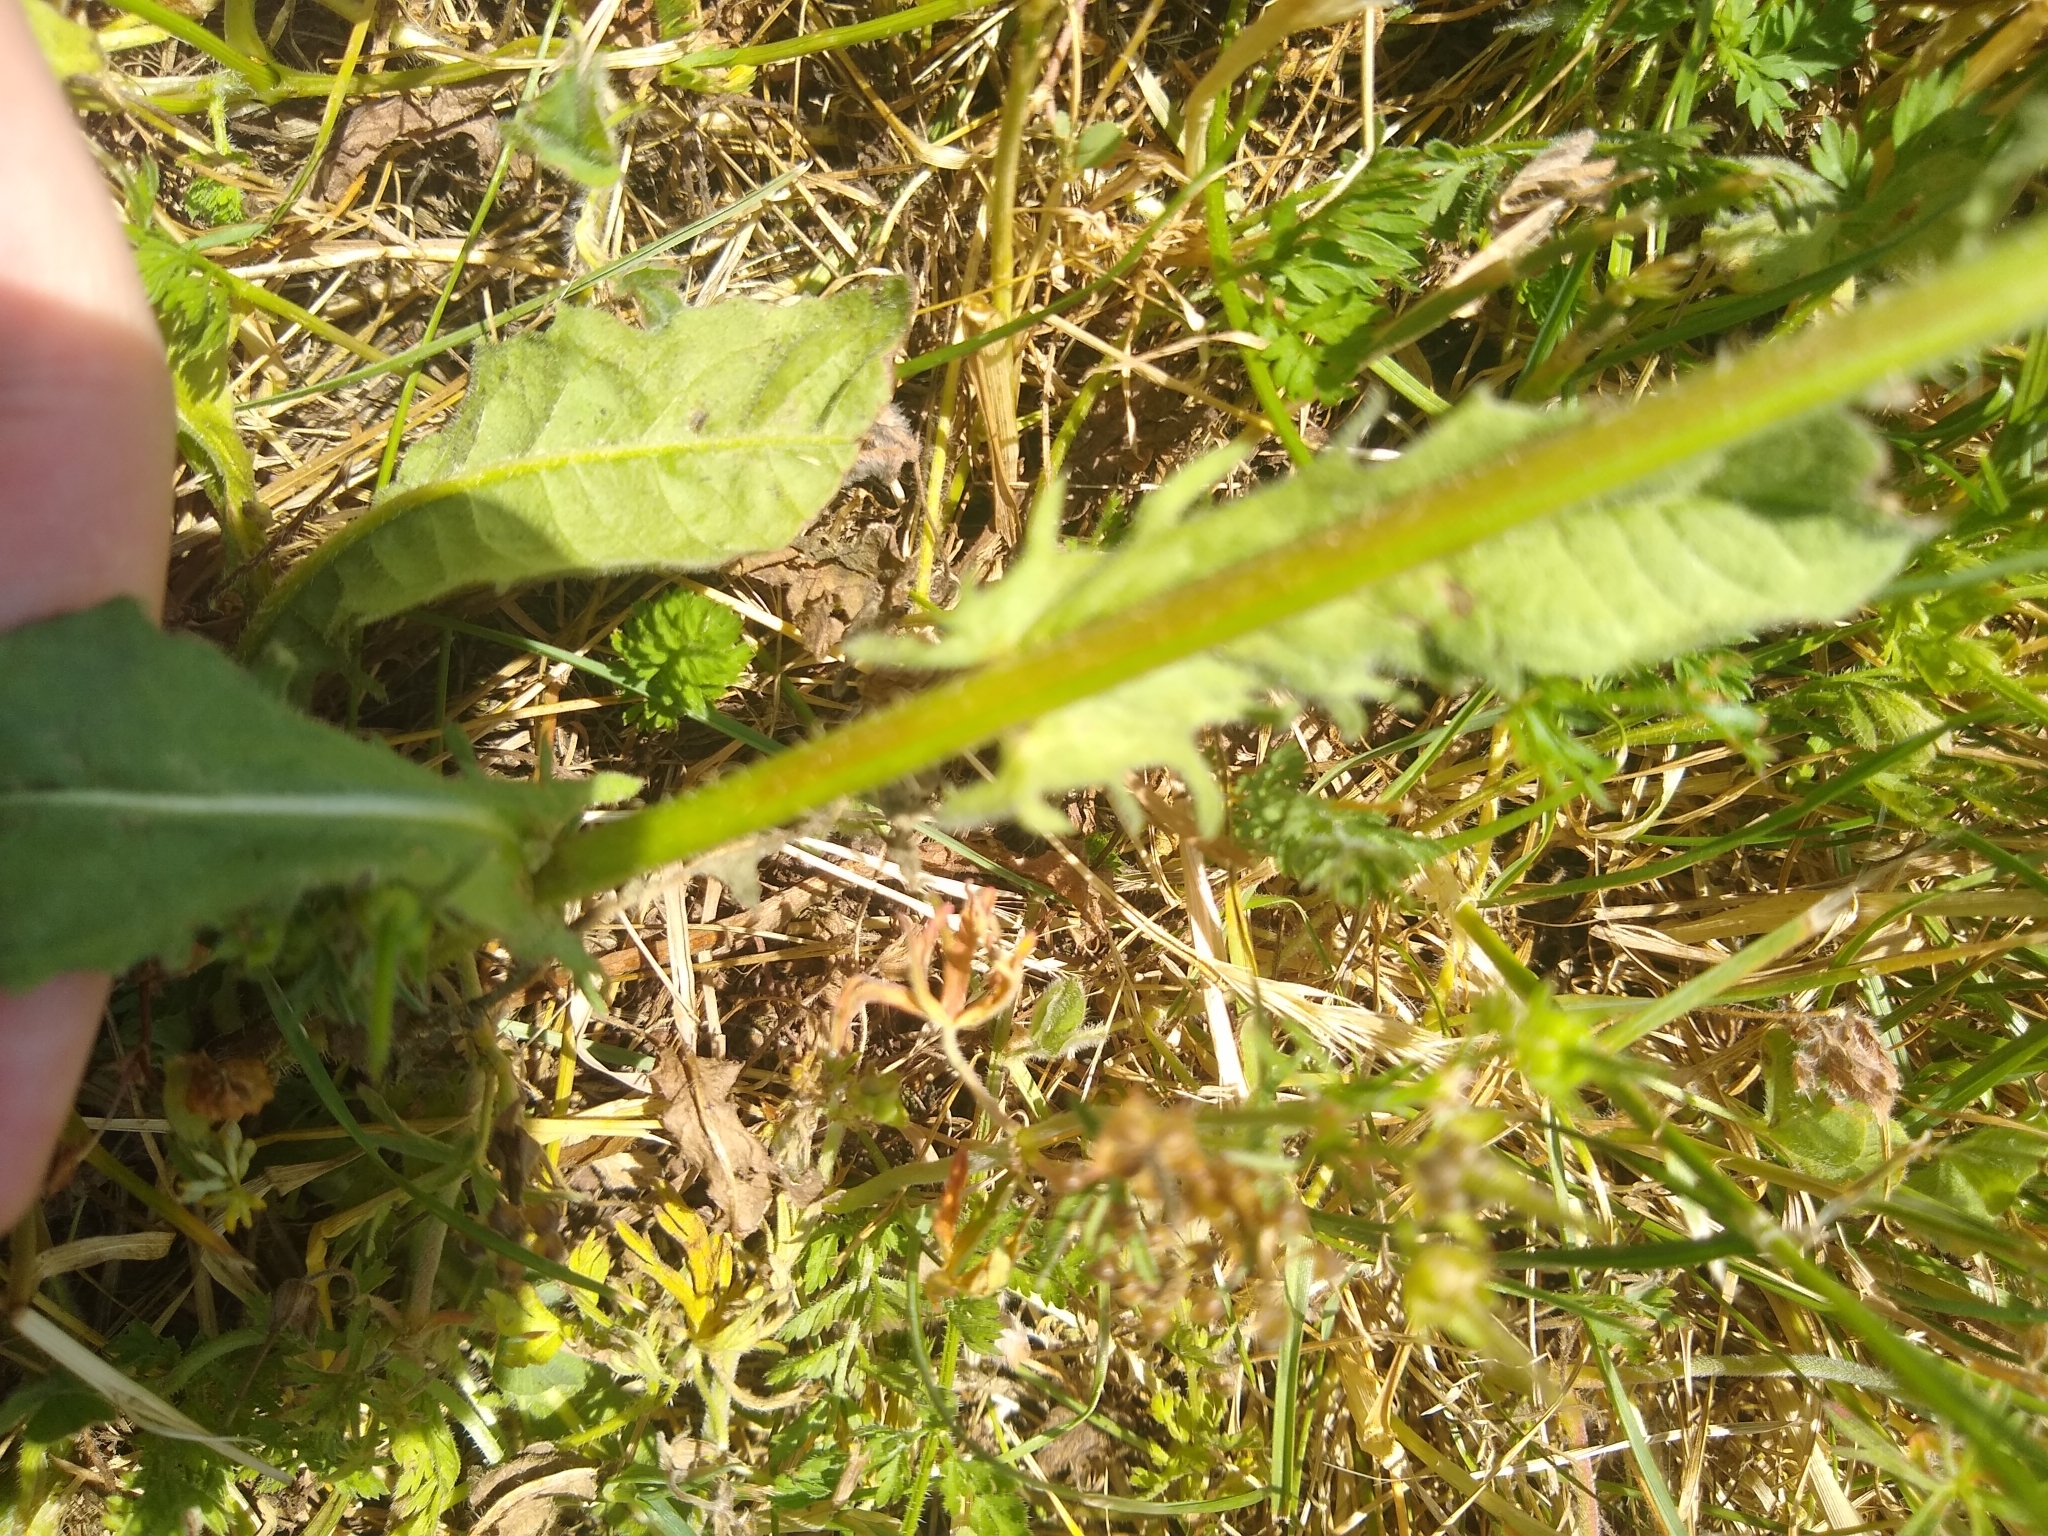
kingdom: Plantae
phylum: Tracheophyta
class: Magnoliopsida
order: Asterales
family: Asteraceae
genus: Crepis
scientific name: Crepis setosa
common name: Bristly hawk's-beard
